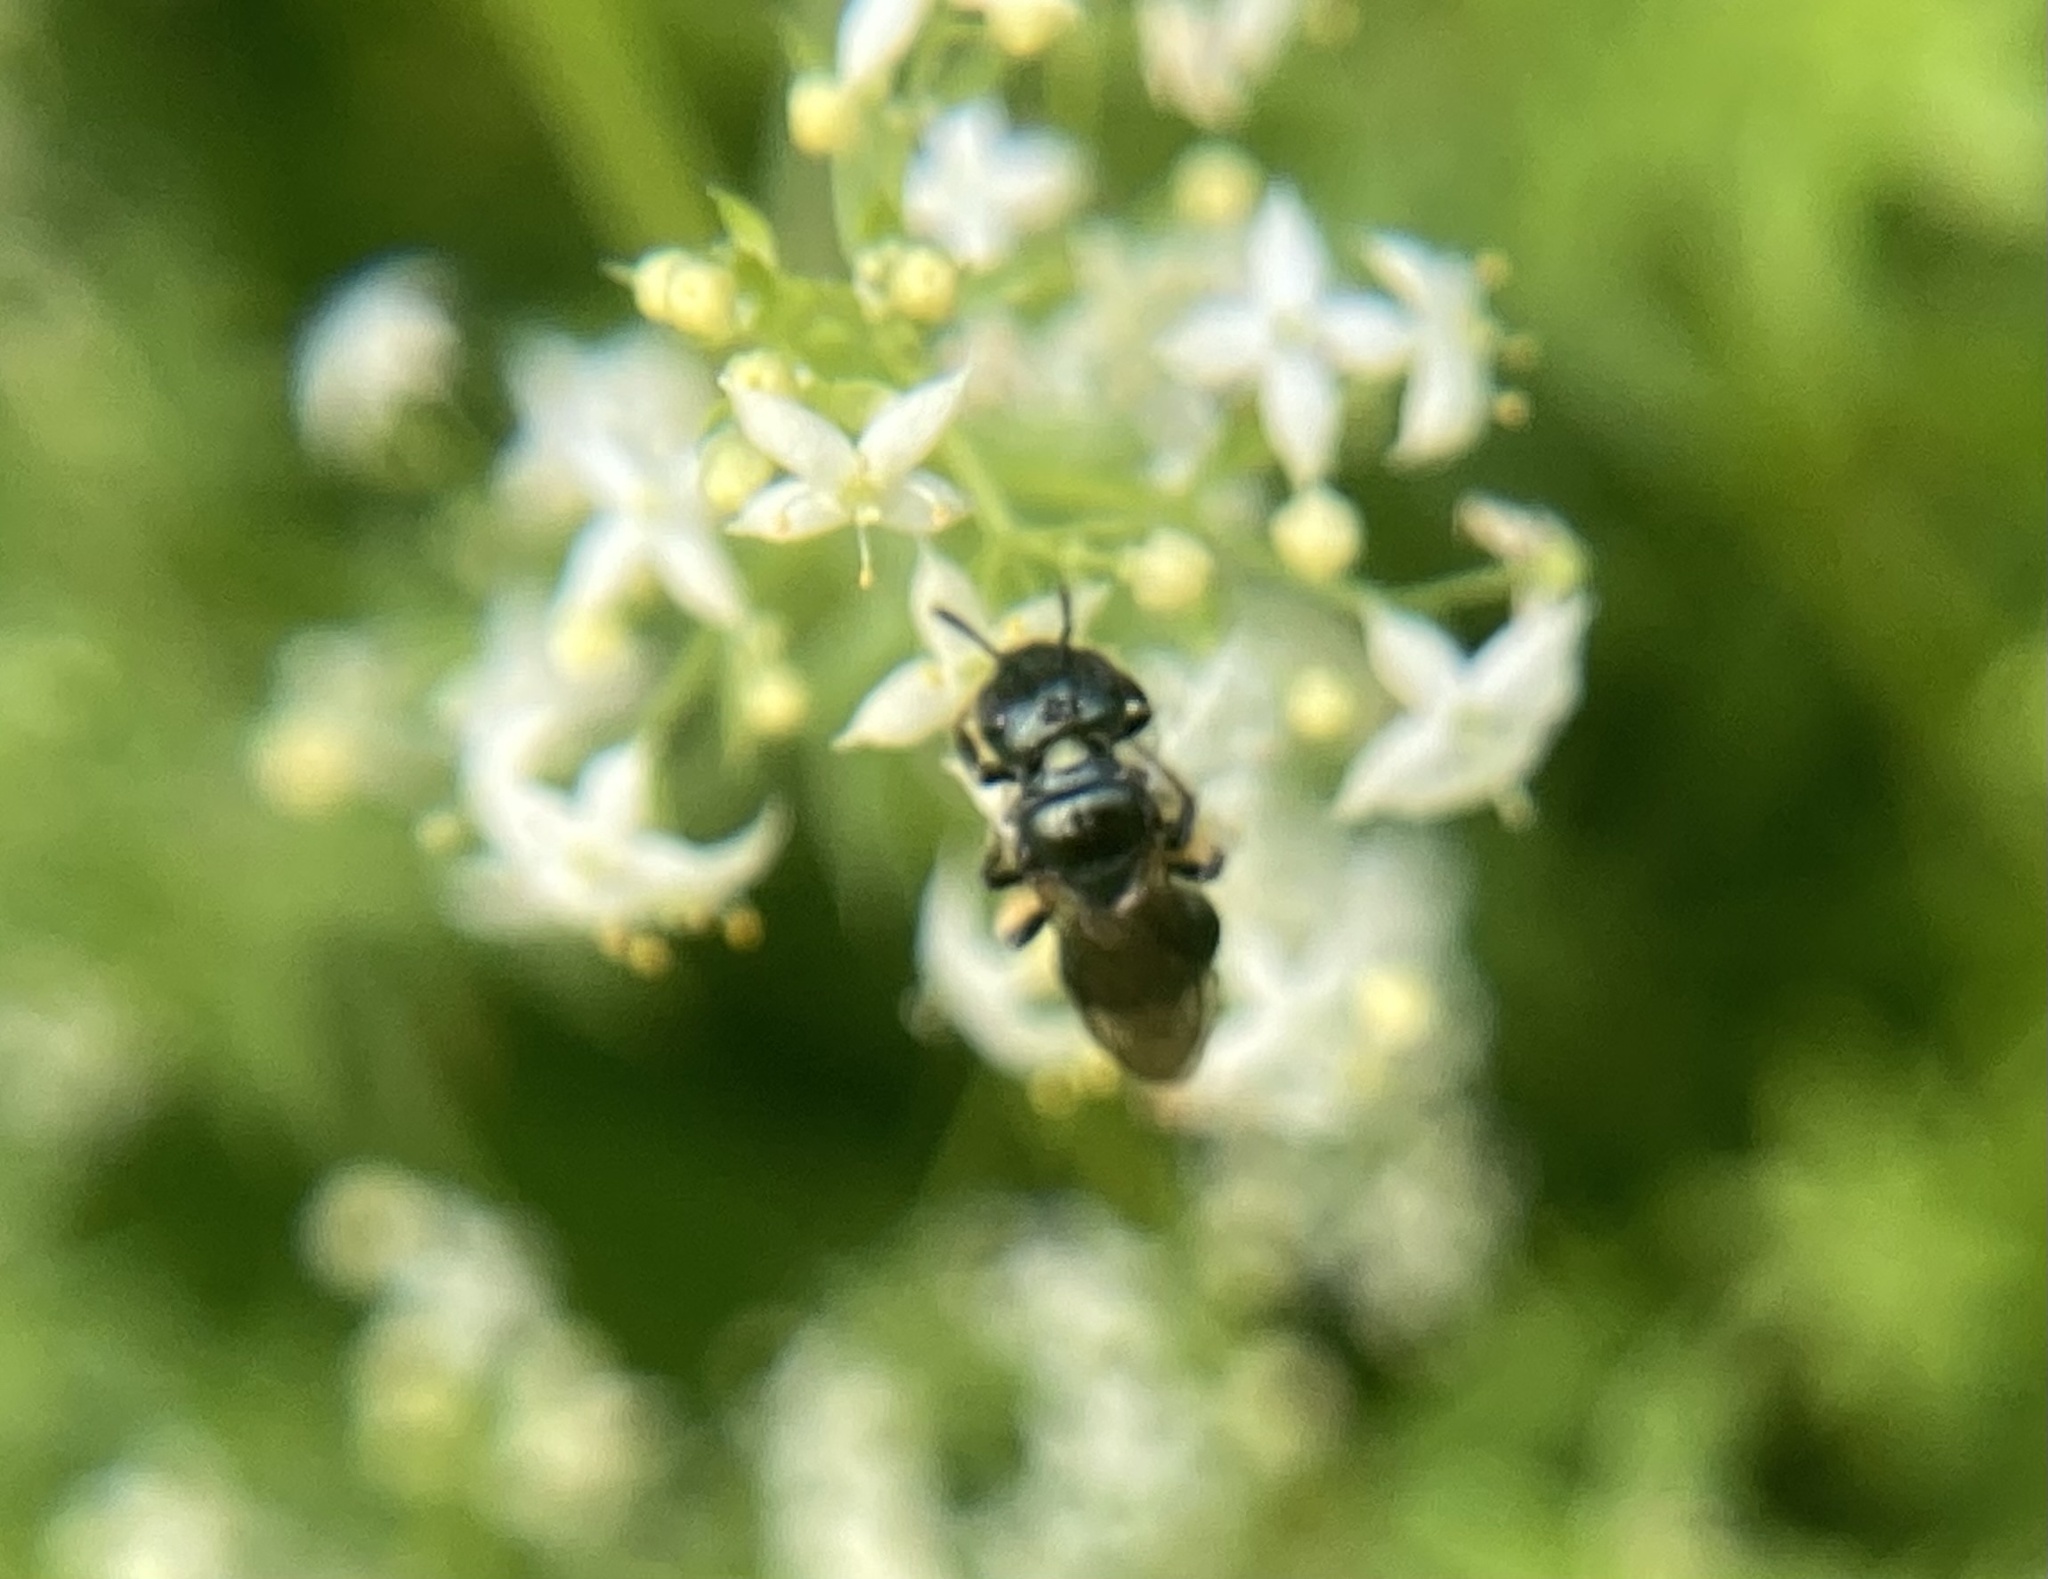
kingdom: Animalia
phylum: Arthropoda
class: Insecta
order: Hymenoptera
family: Apidae
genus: Zadontomerus
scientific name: Zadontomerus
